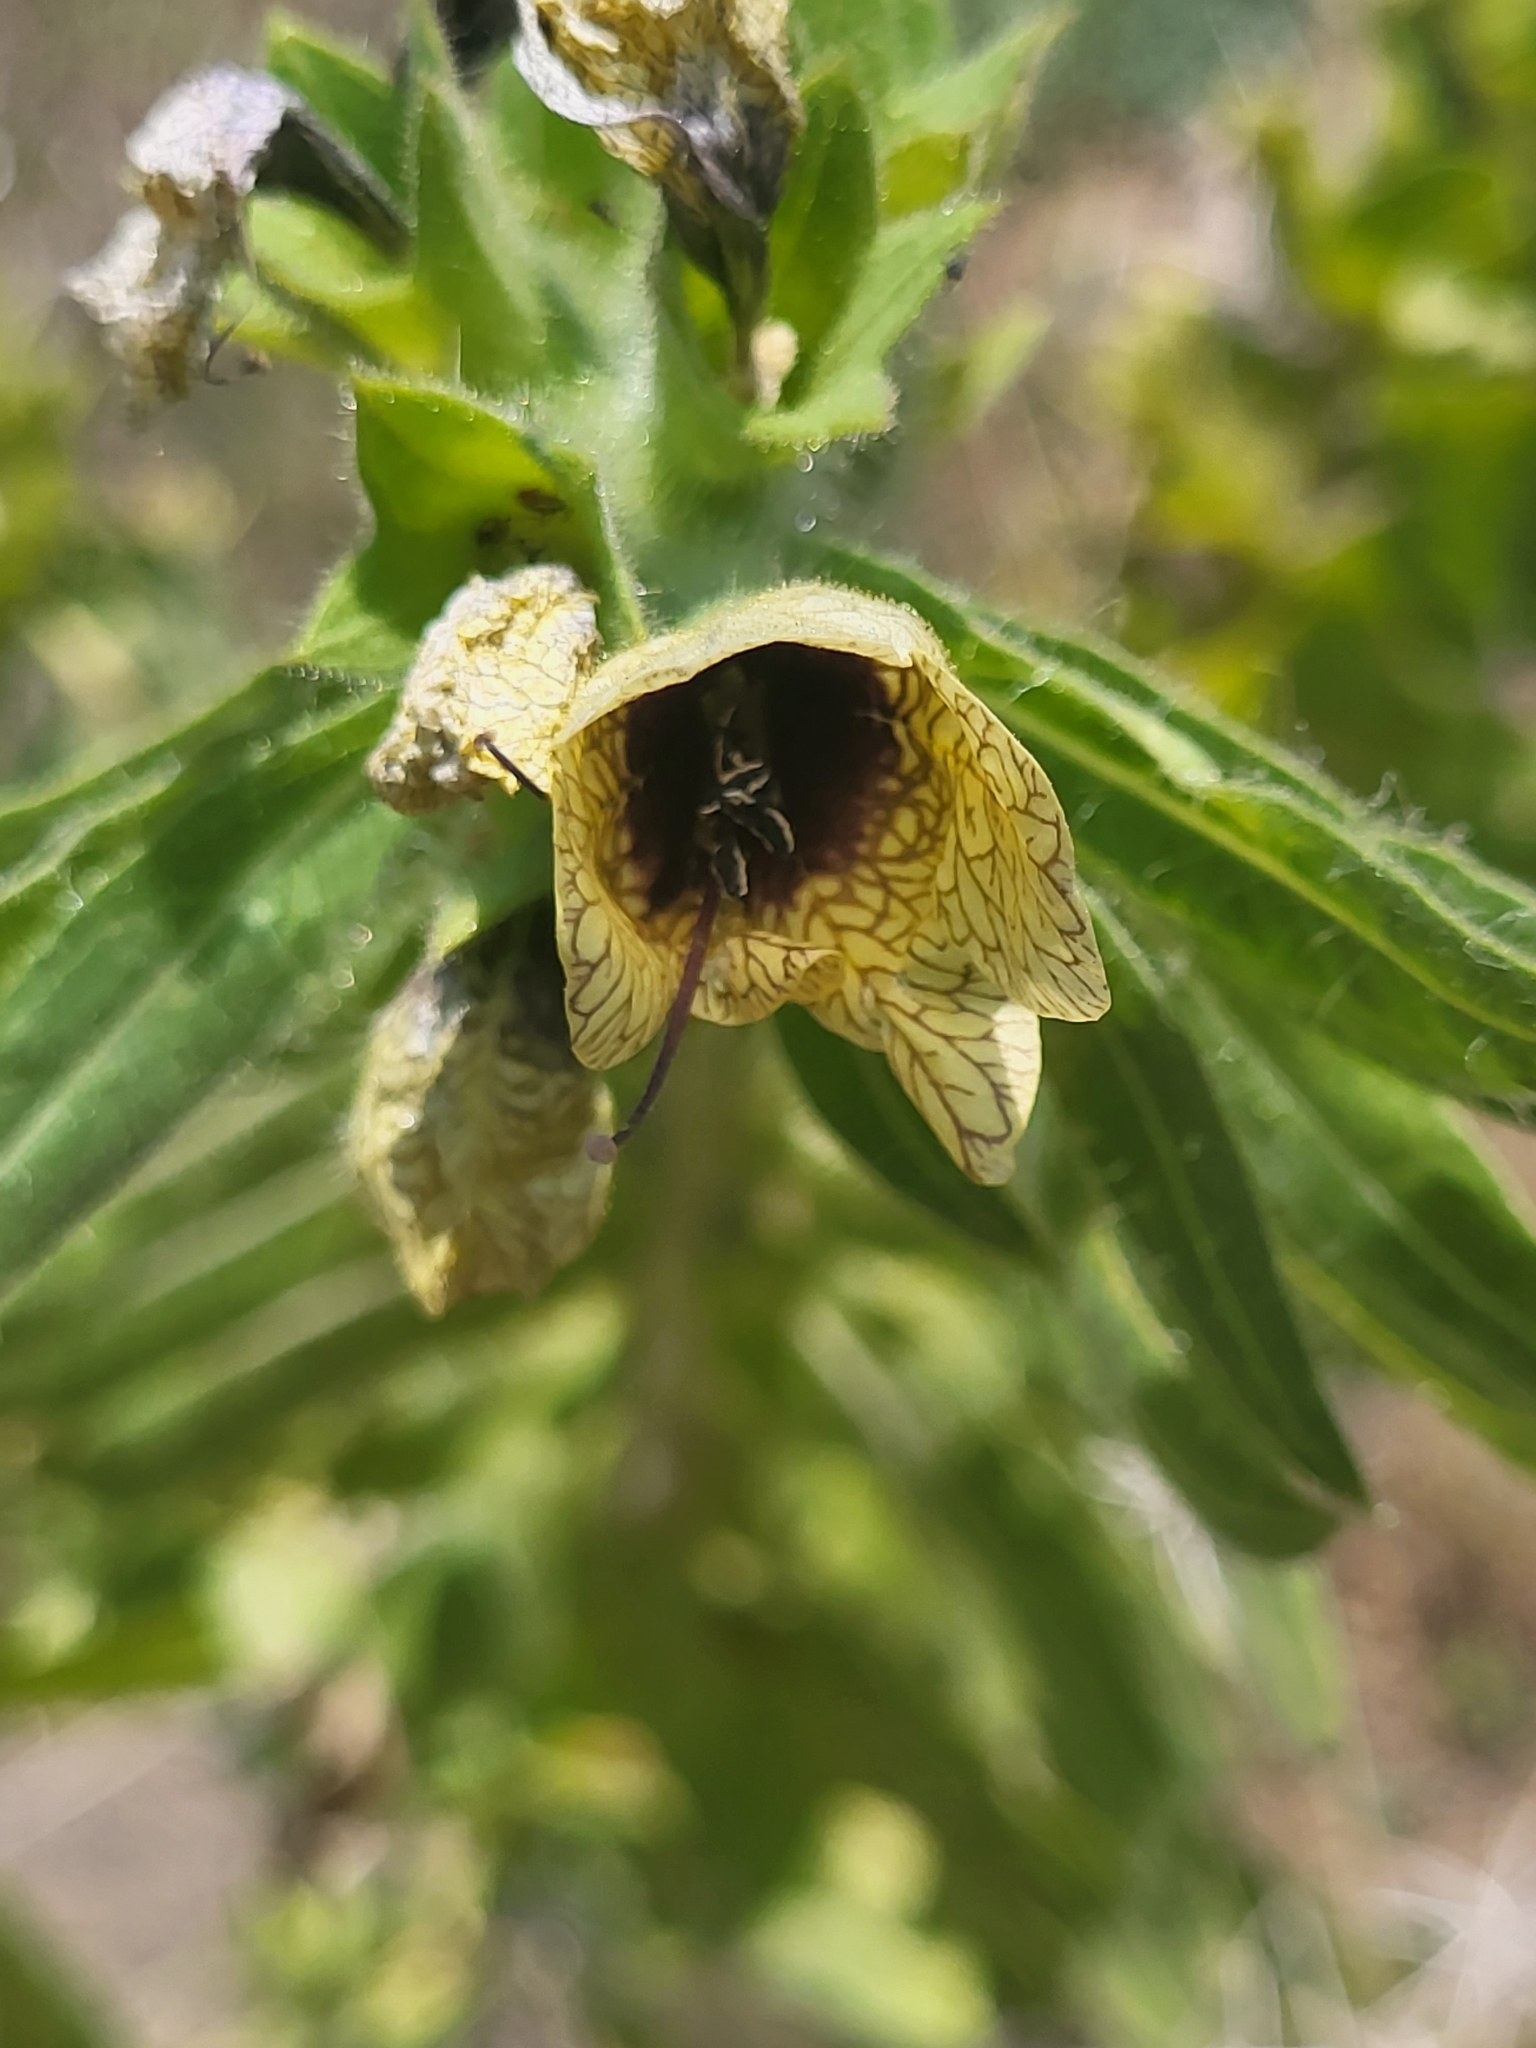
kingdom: Plantae
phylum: Tracheophyta
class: Magnoliopsida
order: Solanales
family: Solanaceae
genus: Hyoscyamus
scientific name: Hyoscyamus niger
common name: Henbane
